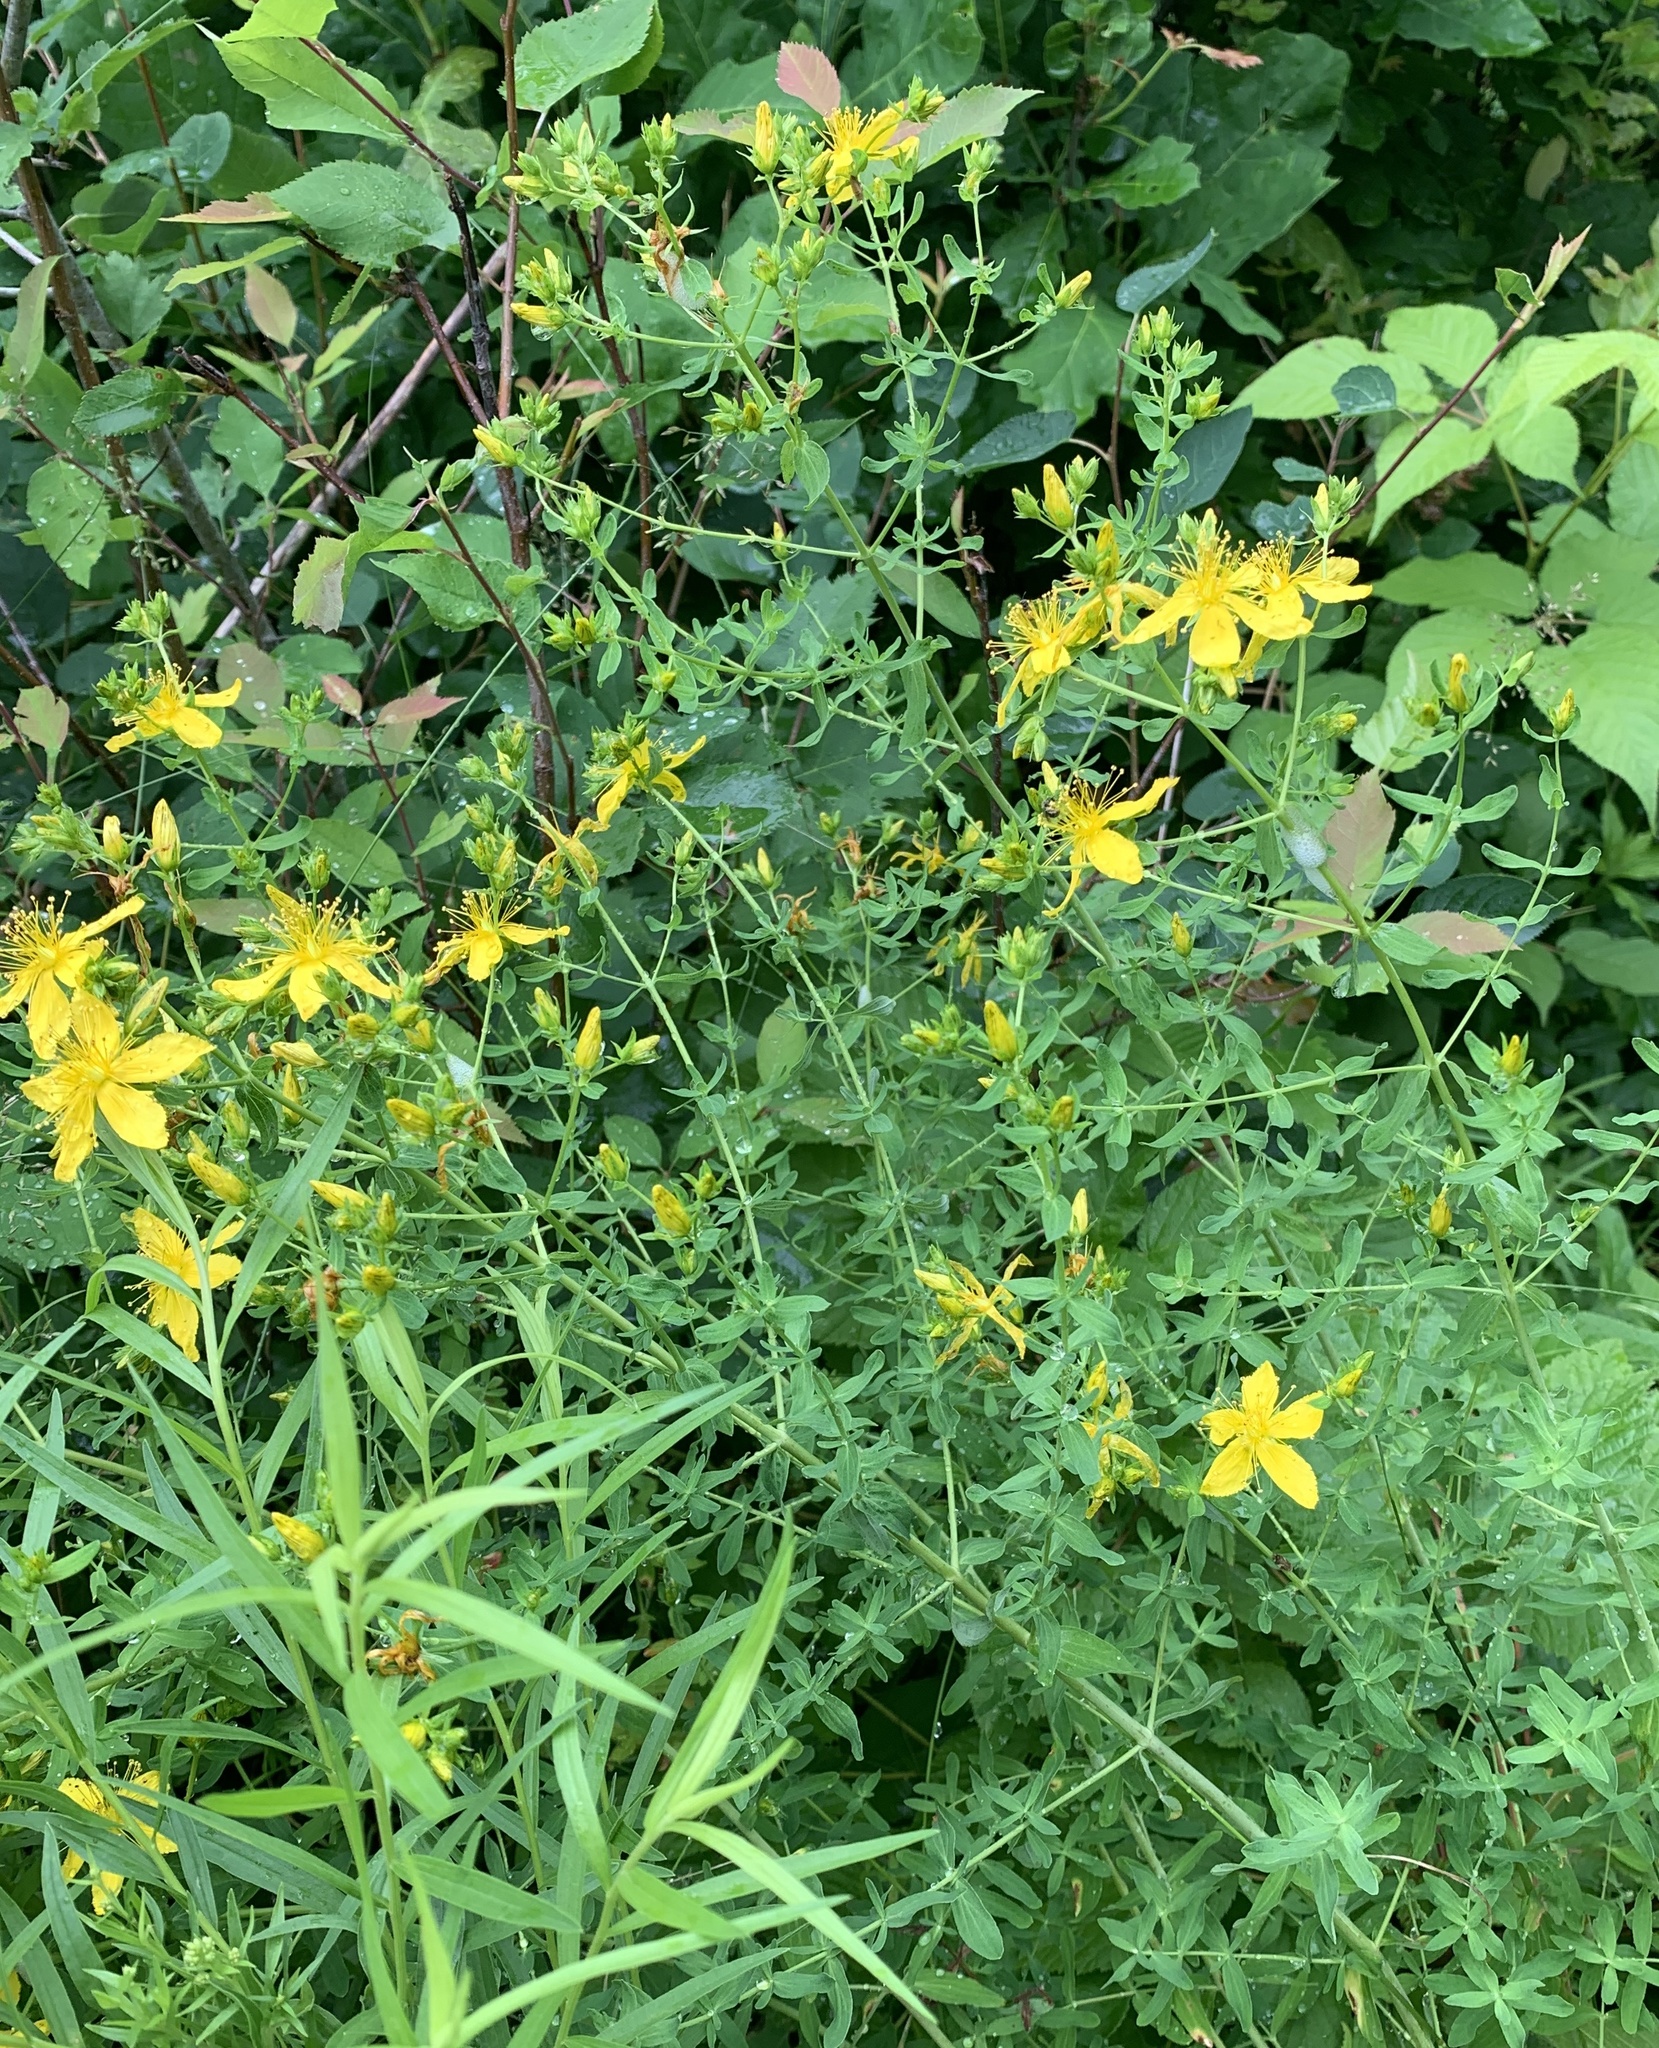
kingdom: Plantae
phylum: Tracheophyta
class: Magnoliopsida
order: Malpighiales
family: Hypericaceae
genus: Hypericum
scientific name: Hypericum perforatum
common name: Common st. johnswort
